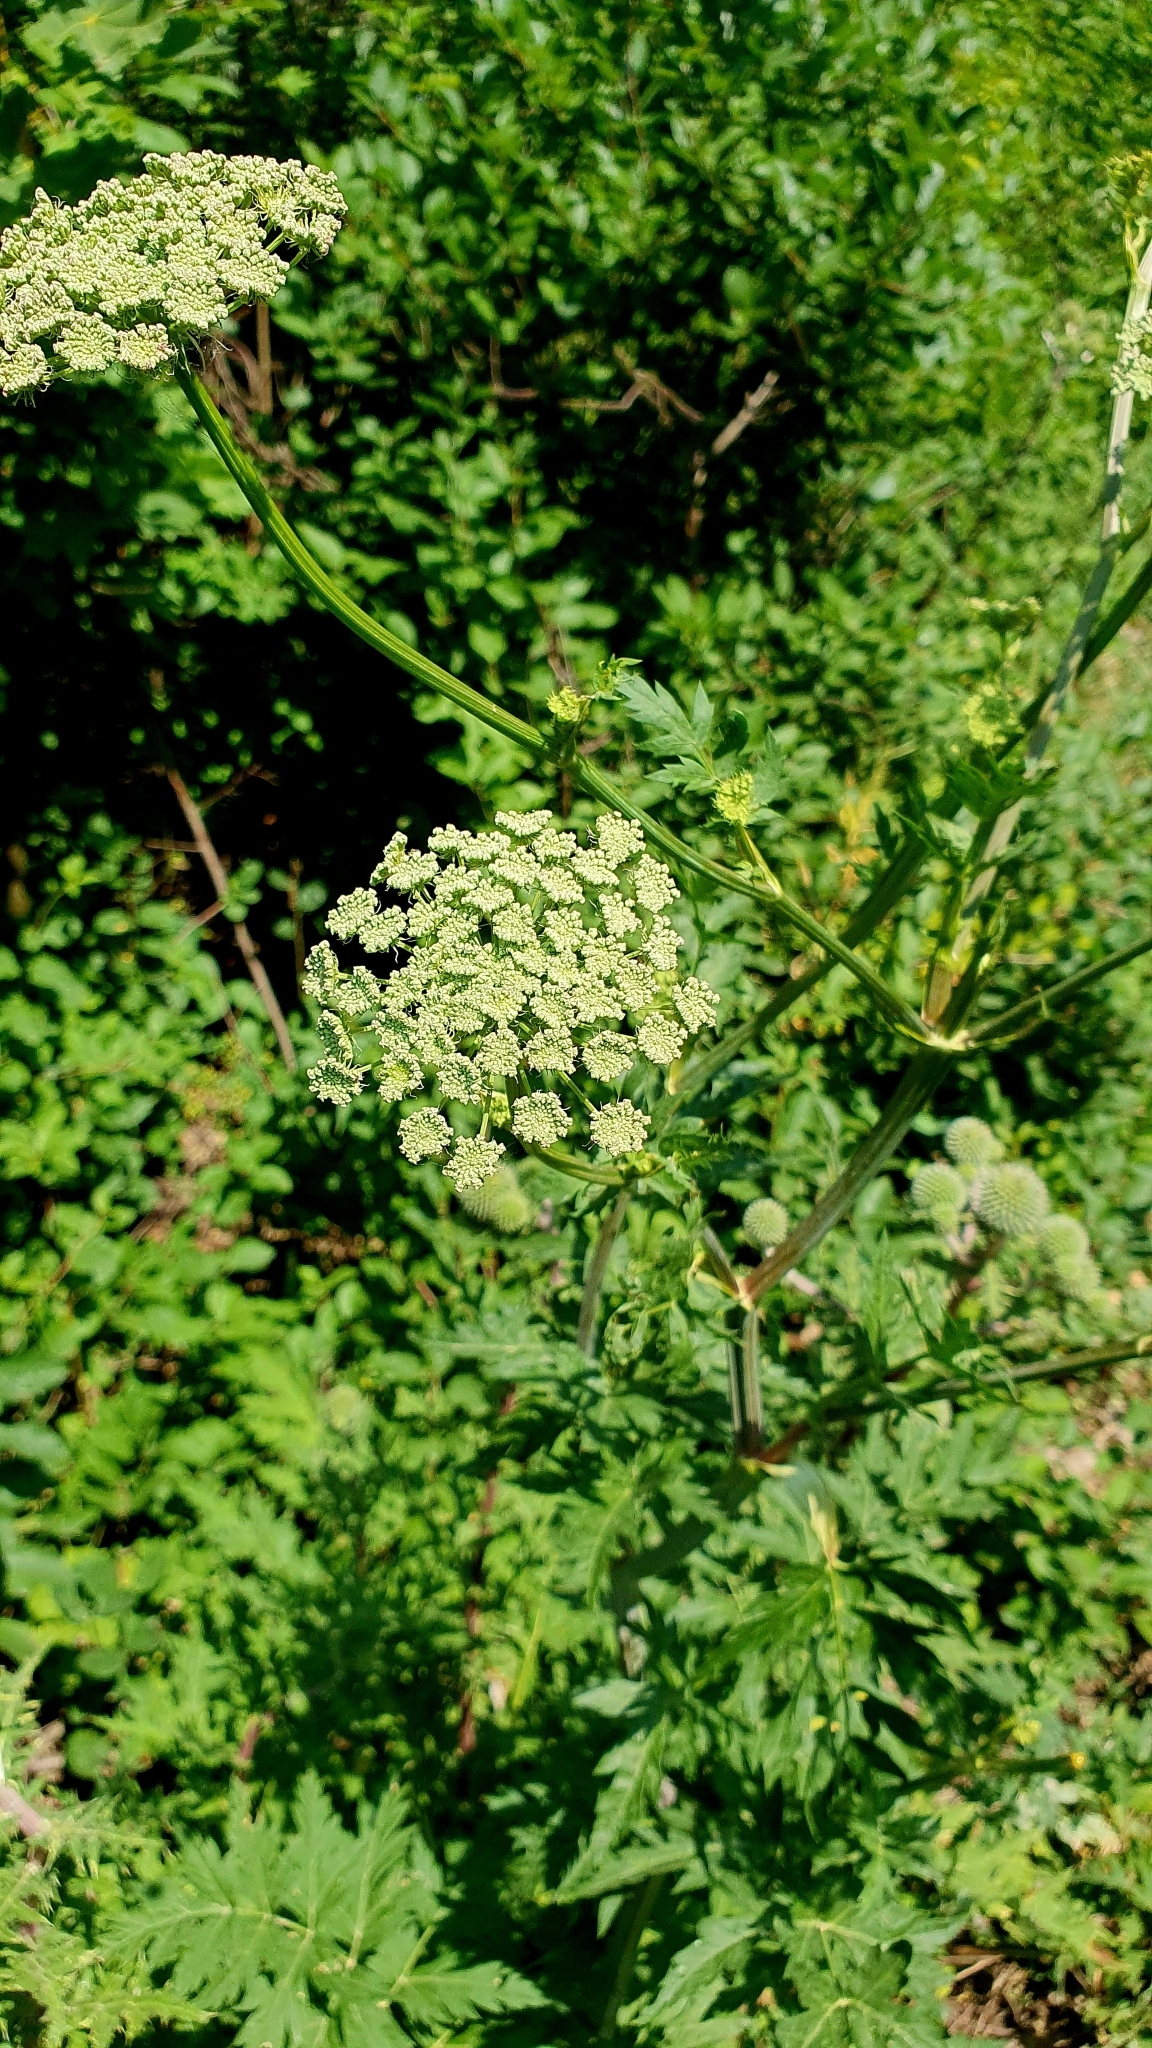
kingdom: Plantae
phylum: Tracheophyta
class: Magnoliopsida
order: Apiales
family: Apiaceae
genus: Seseli
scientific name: Seseli libanotis
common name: Mooncarrot
